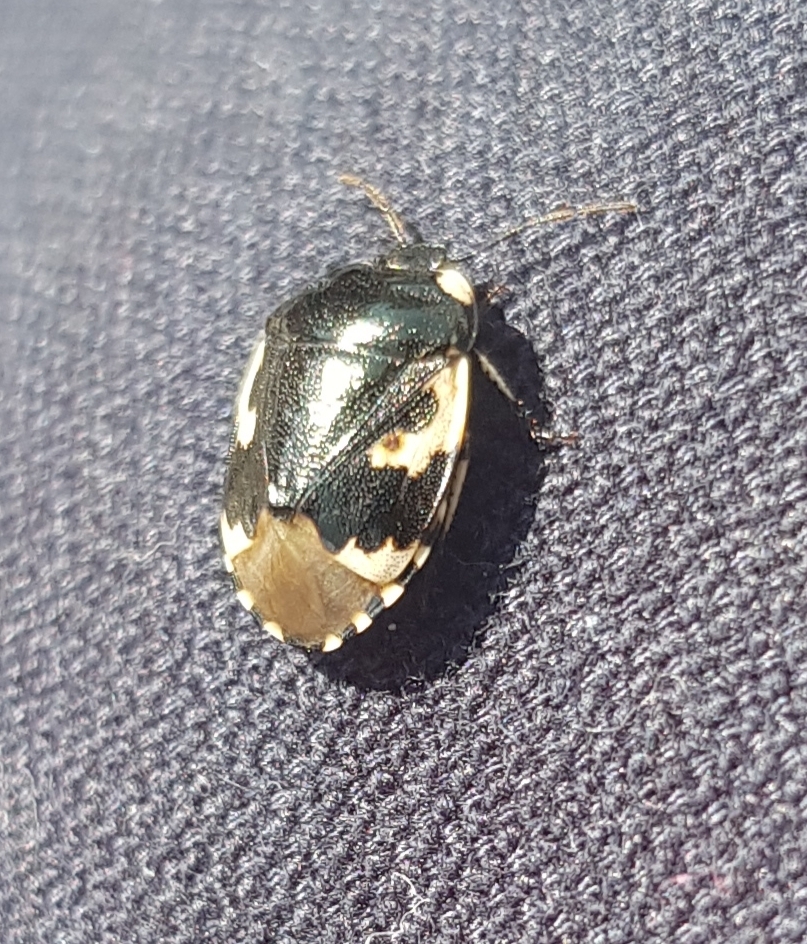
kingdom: Animalia
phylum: Arthropoda
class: Insecta
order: Hemiptera
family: Cydnidae
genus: Tritomegas
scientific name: Tritomegas bicolor
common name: Pied shieldbug
